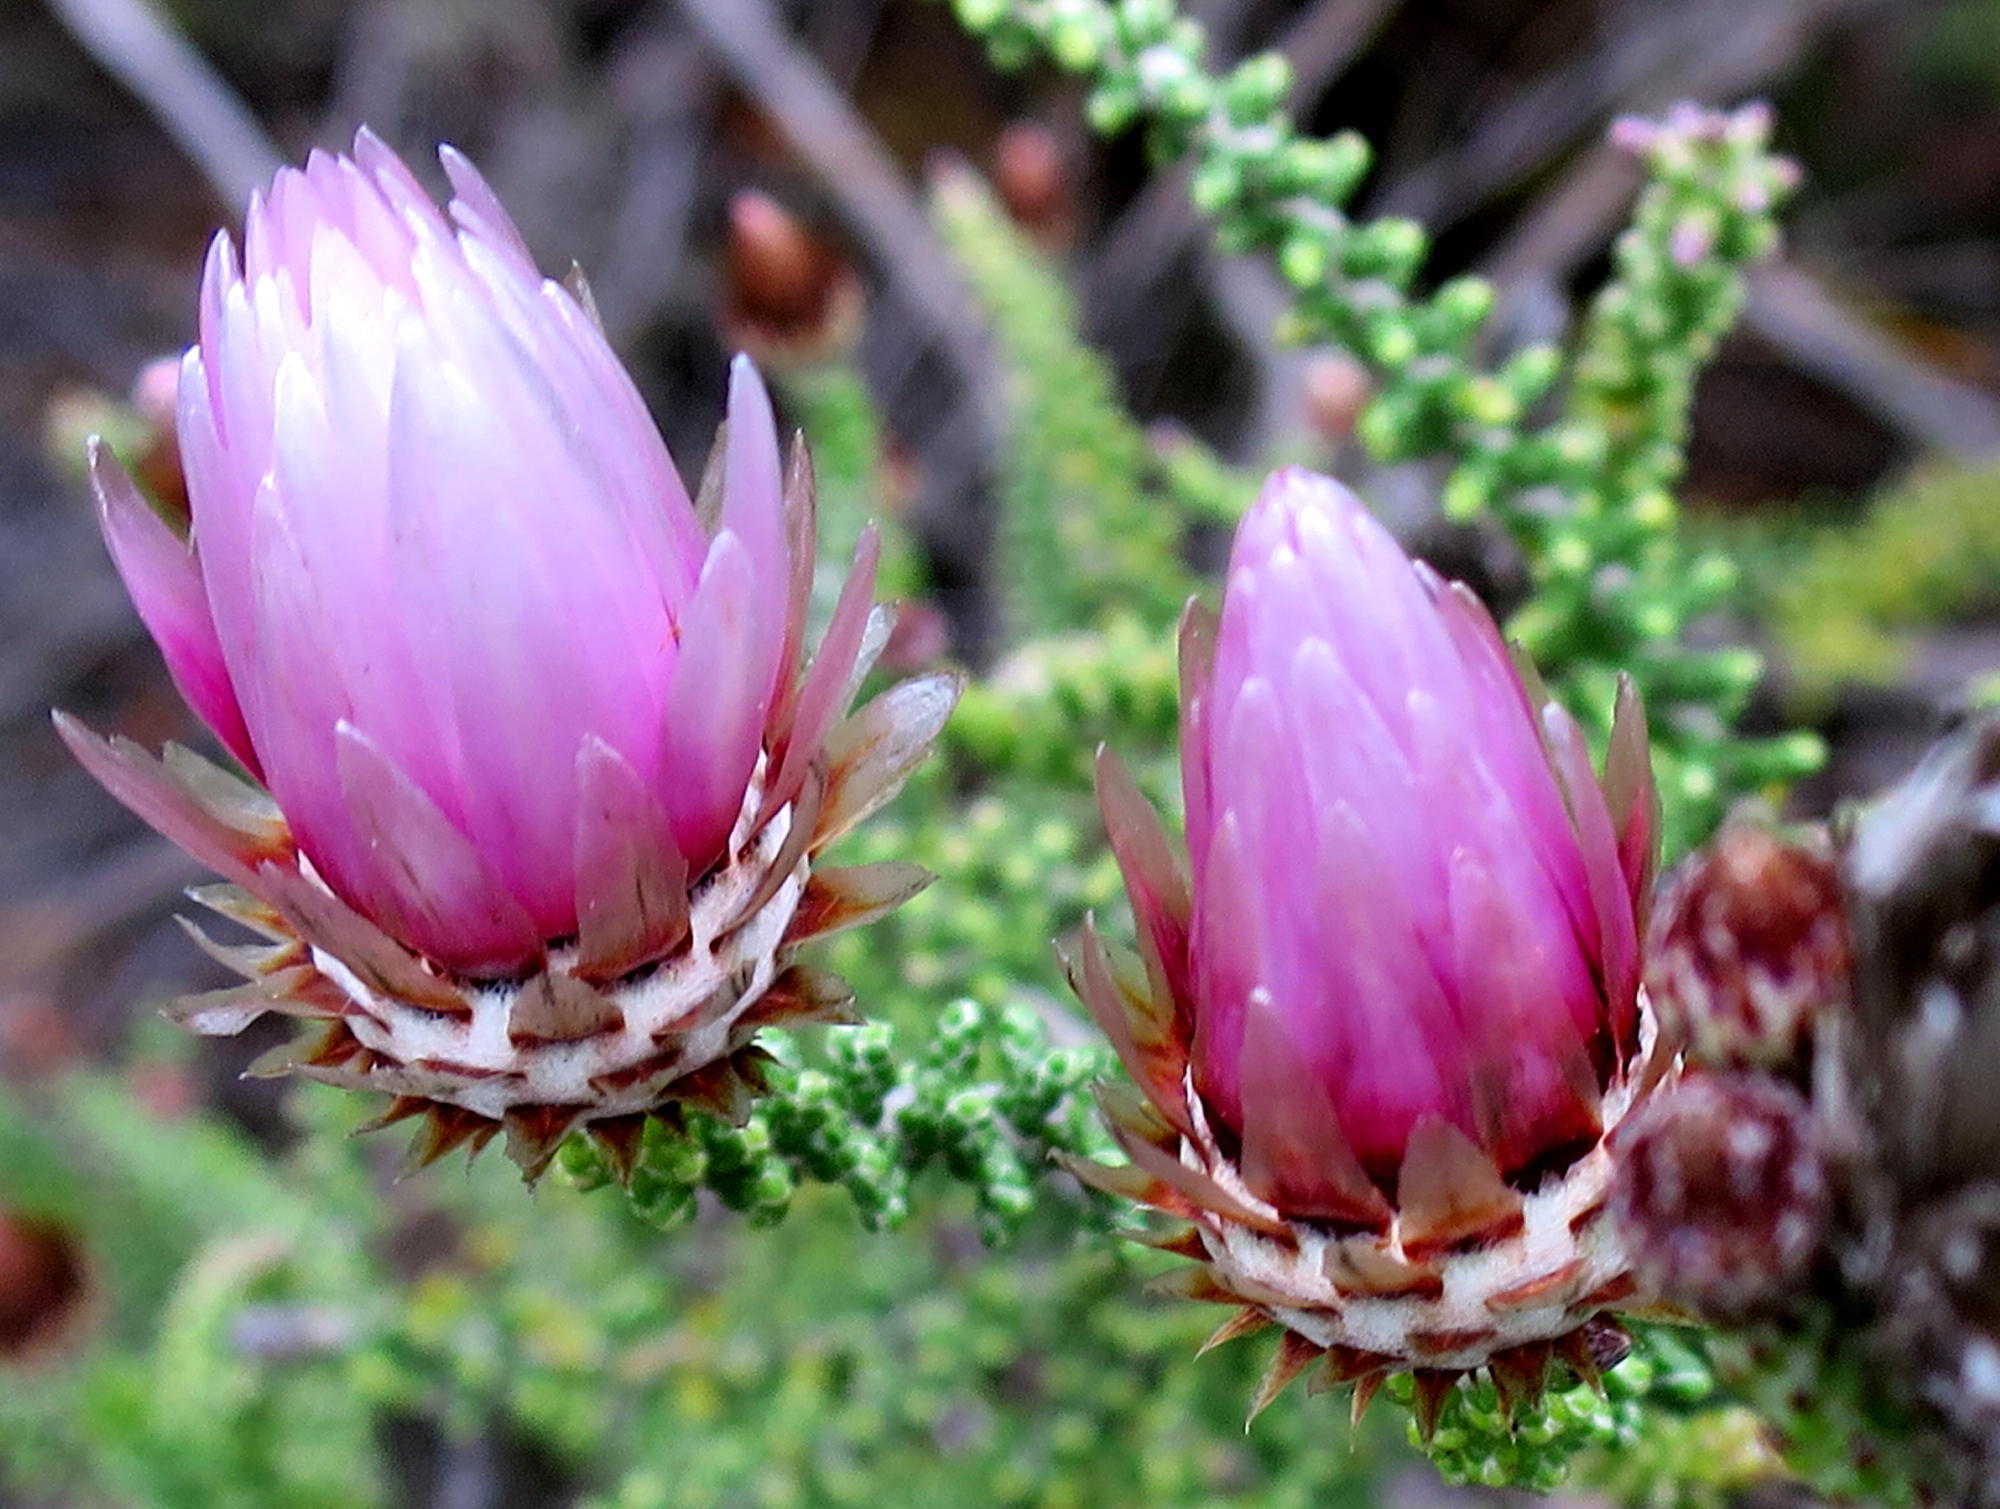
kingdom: Plantae
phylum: Tracheophyta
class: Magnoliopsida
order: Asterales
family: Asteraceae
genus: Phaenocoma
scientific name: Phaenocoma prolifera
